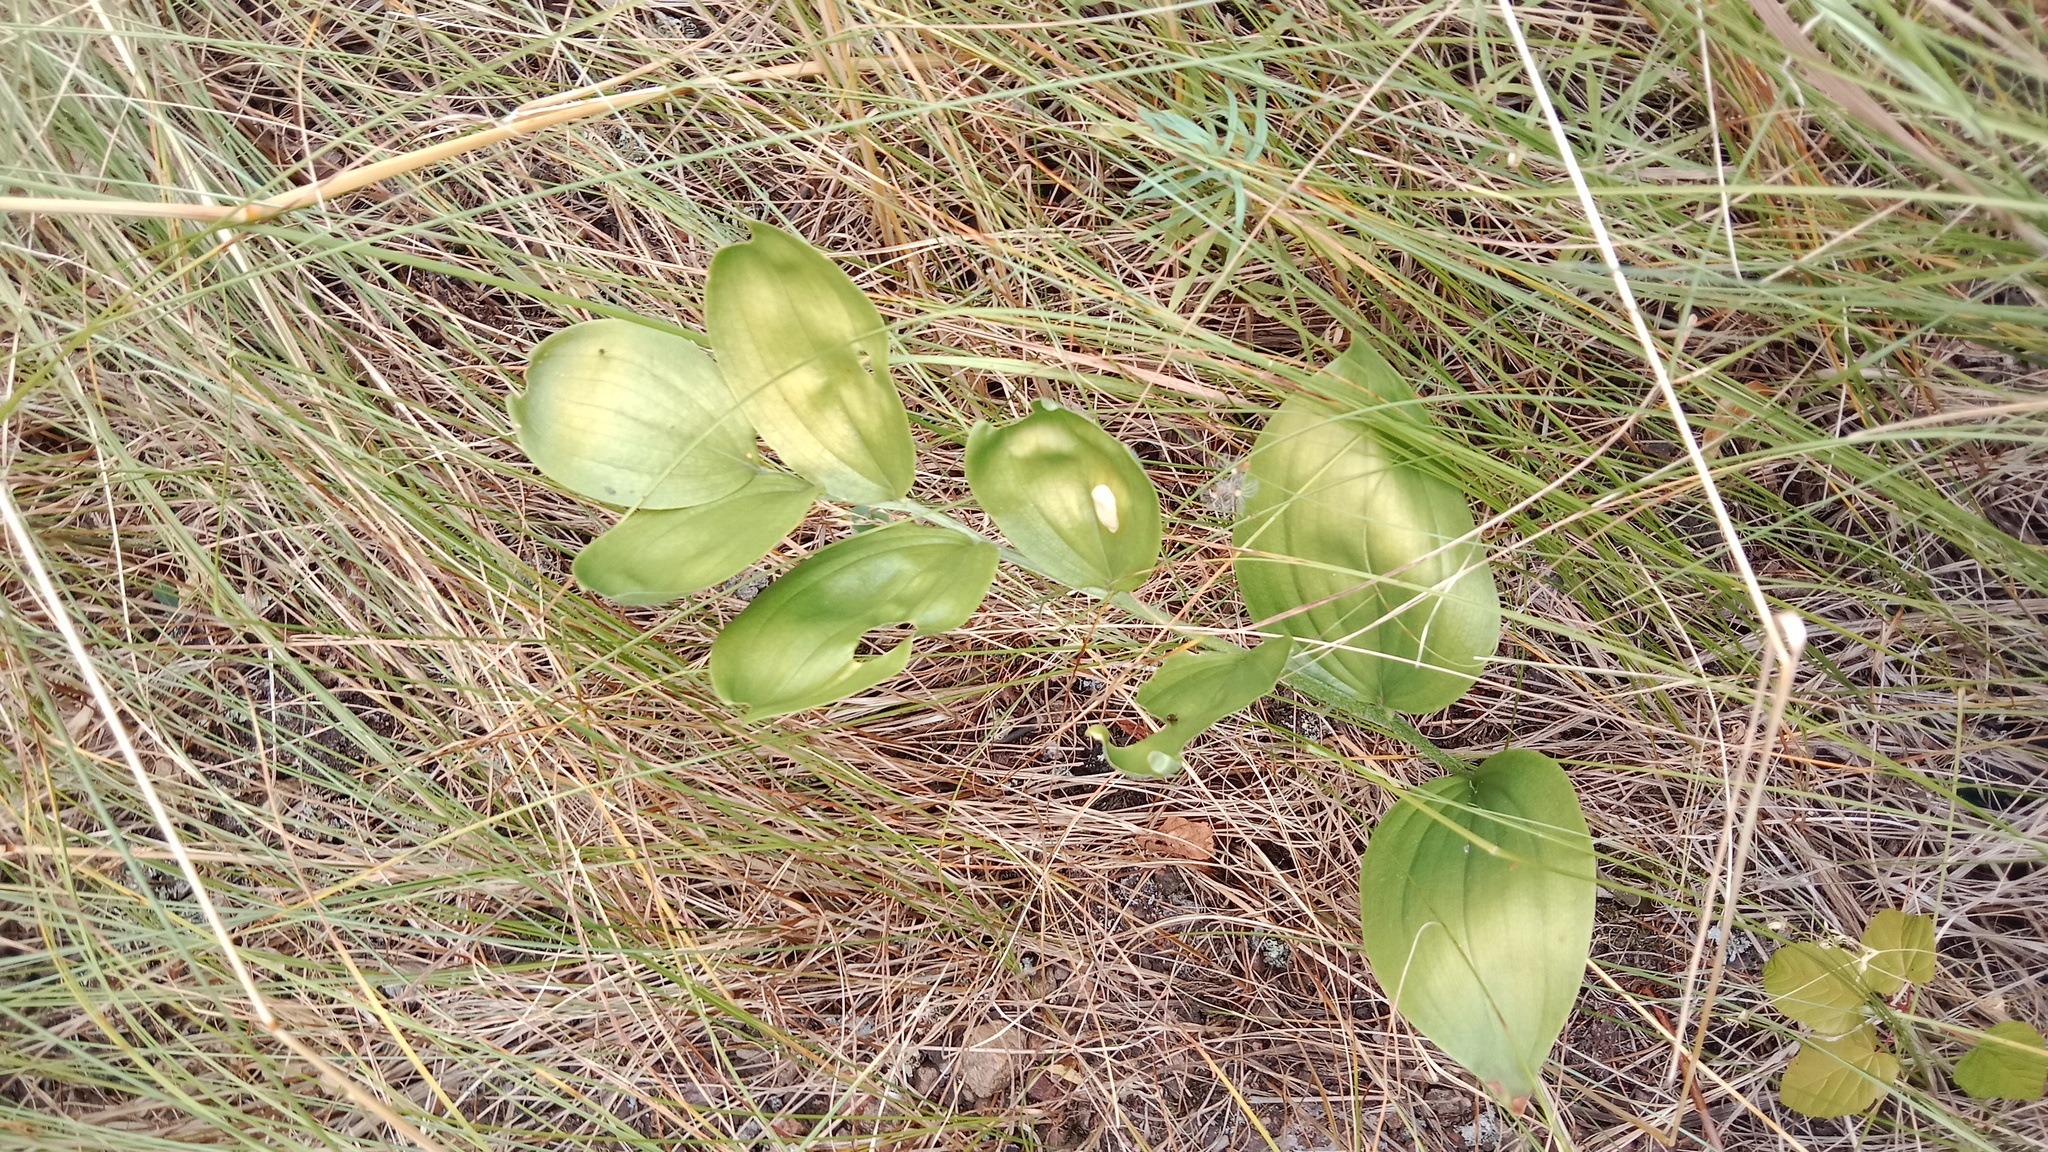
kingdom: Plantae
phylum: Tracheophyta
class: Liliopsida
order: Asparagales
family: Asparagaceae
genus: Polygonatum
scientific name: Polygonatum odoratum
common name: Angular solomon's-seal
